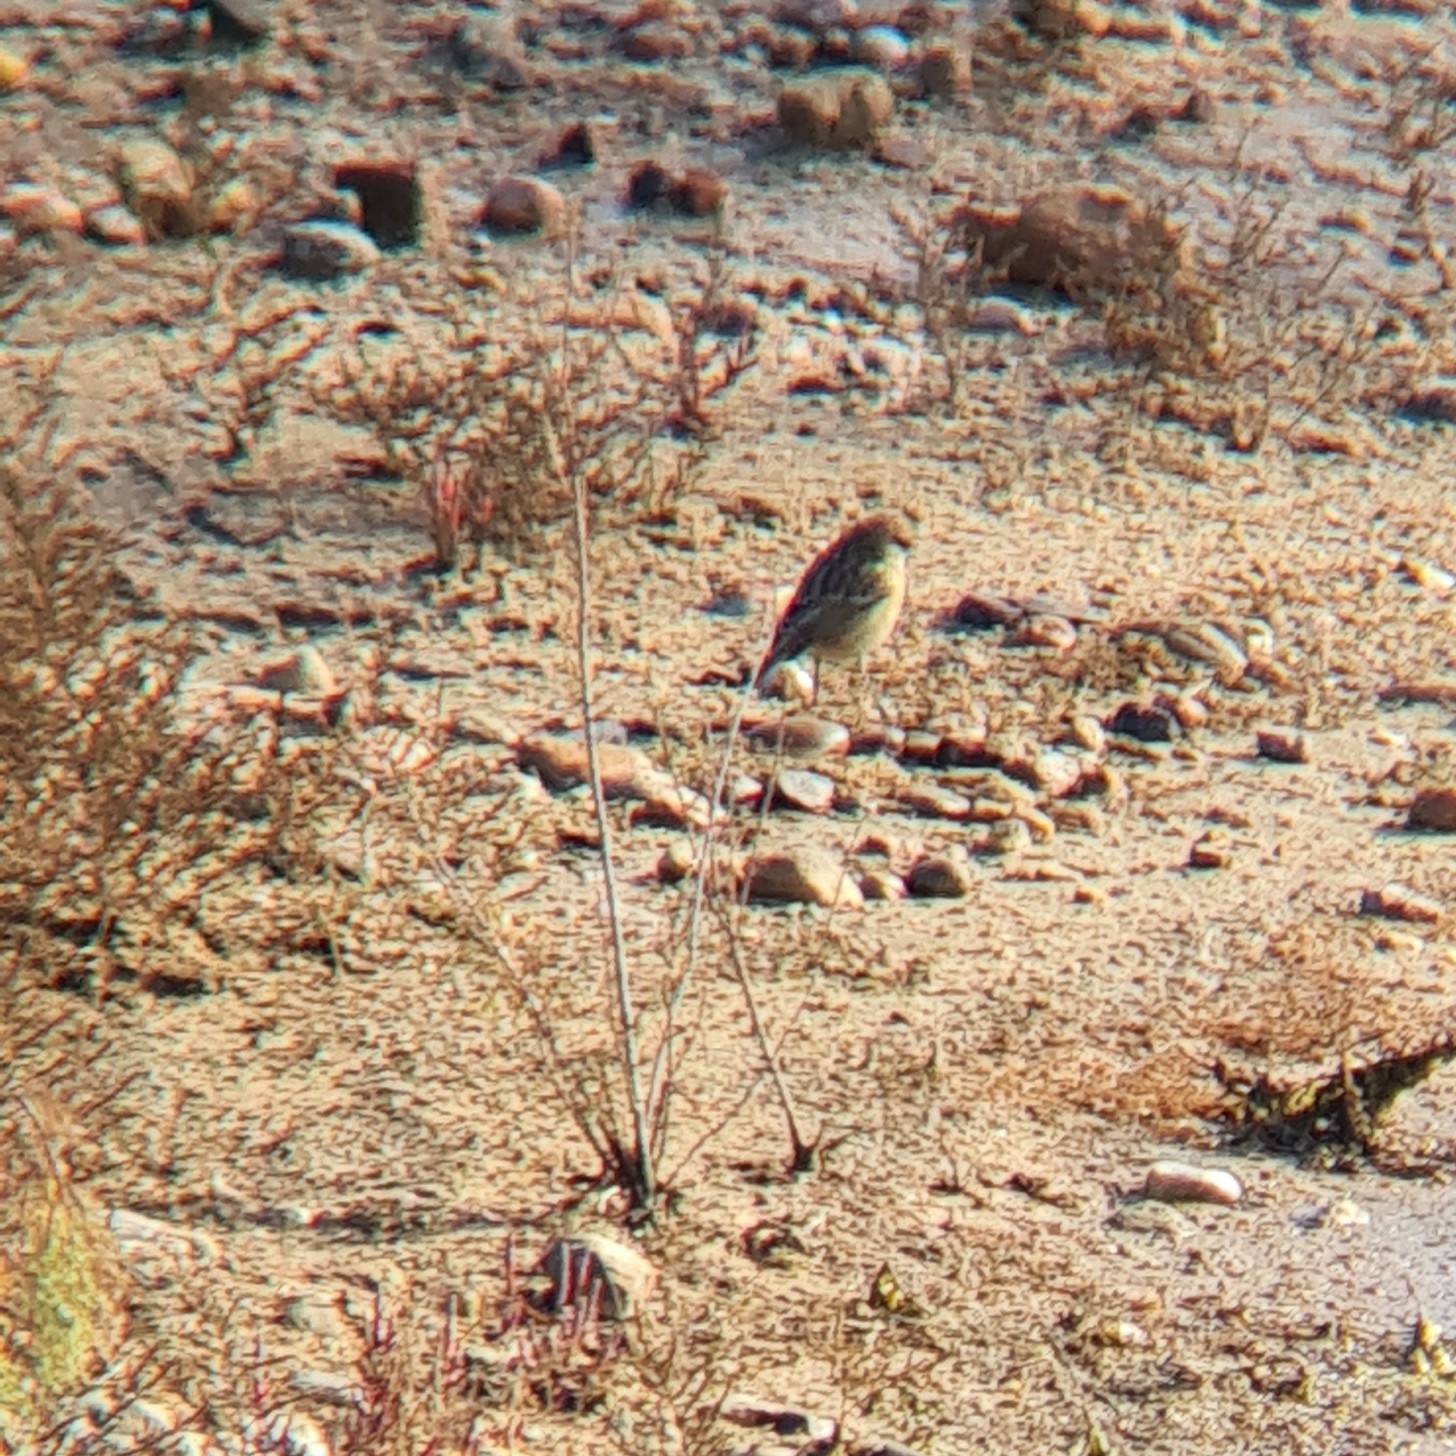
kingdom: Animalia
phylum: Chordata
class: Aves
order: Passeriformes
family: Muscicapidae
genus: Saxicola
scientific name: Saxicola rubicola
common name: European stonechat
